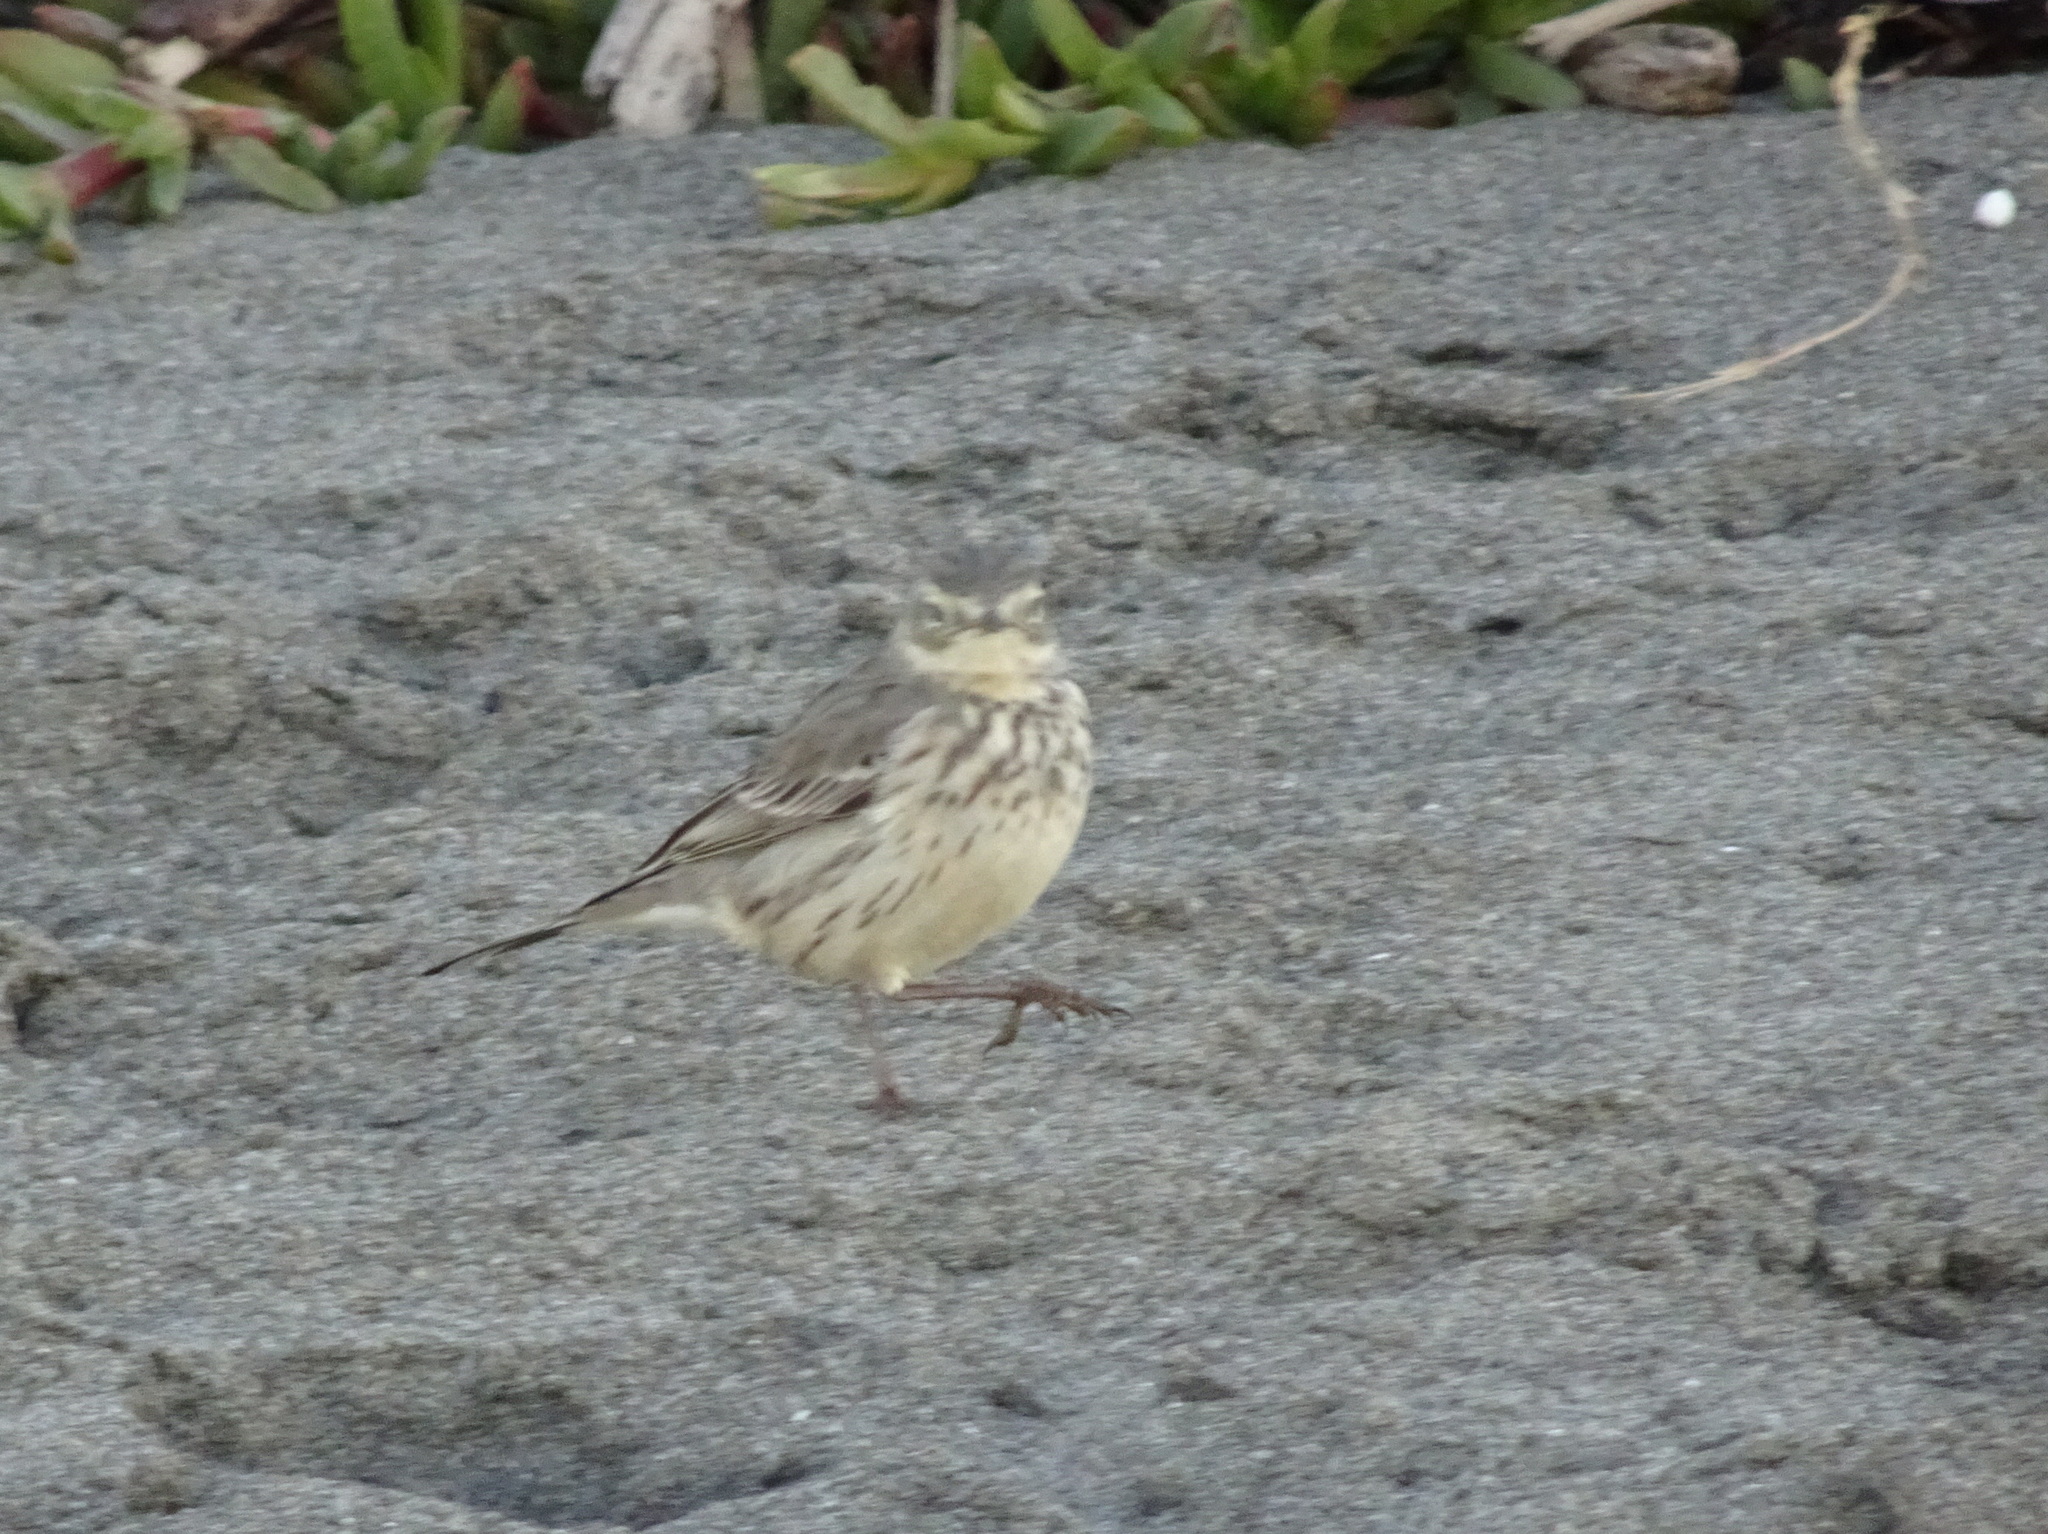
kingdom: Animalia
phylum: Chordata
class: Aves
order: Passeriformes
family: Motacillidae
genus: Anthus
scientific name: Anthus rubescens
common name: Buff-bellied pipit
